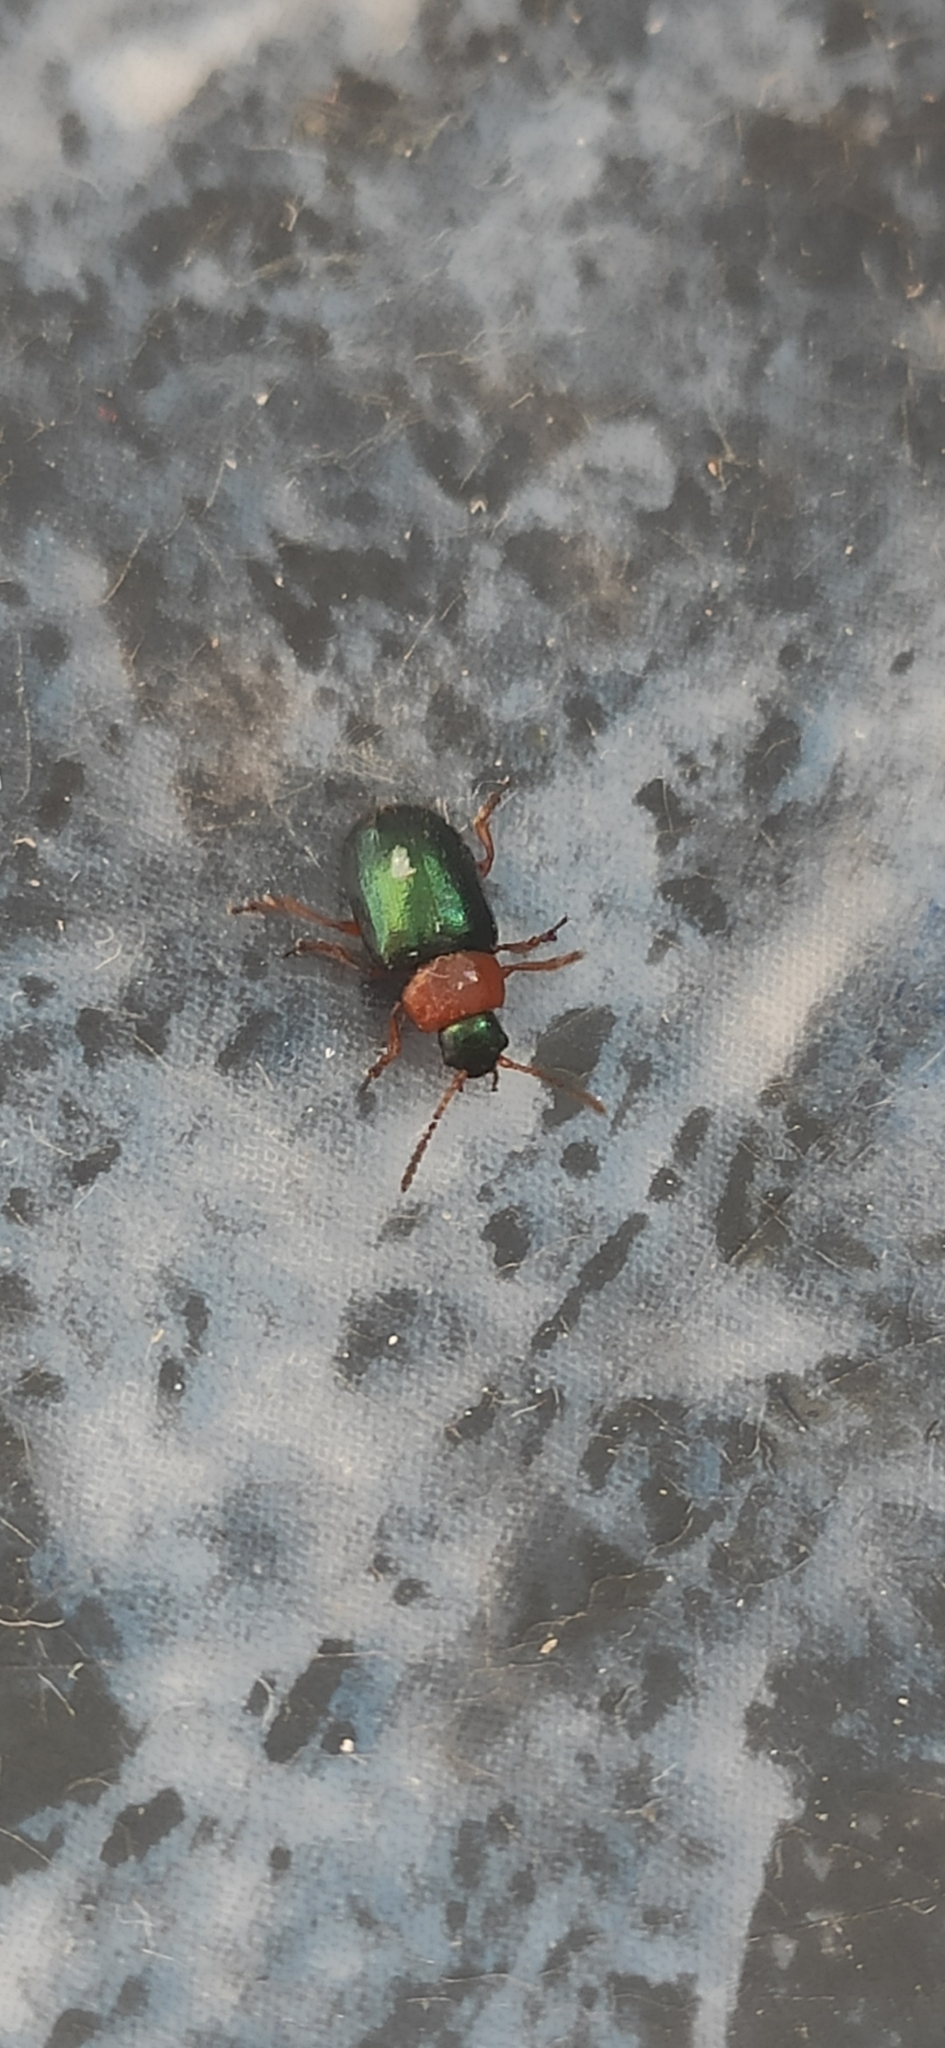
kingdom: Animalia
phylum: Arthropoda
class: Insecta
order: Coleoptera
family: Chrysomelidae
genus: Gastrophysa
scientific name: Gastrophysa polygoni
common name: Knotweed leaf beetle
